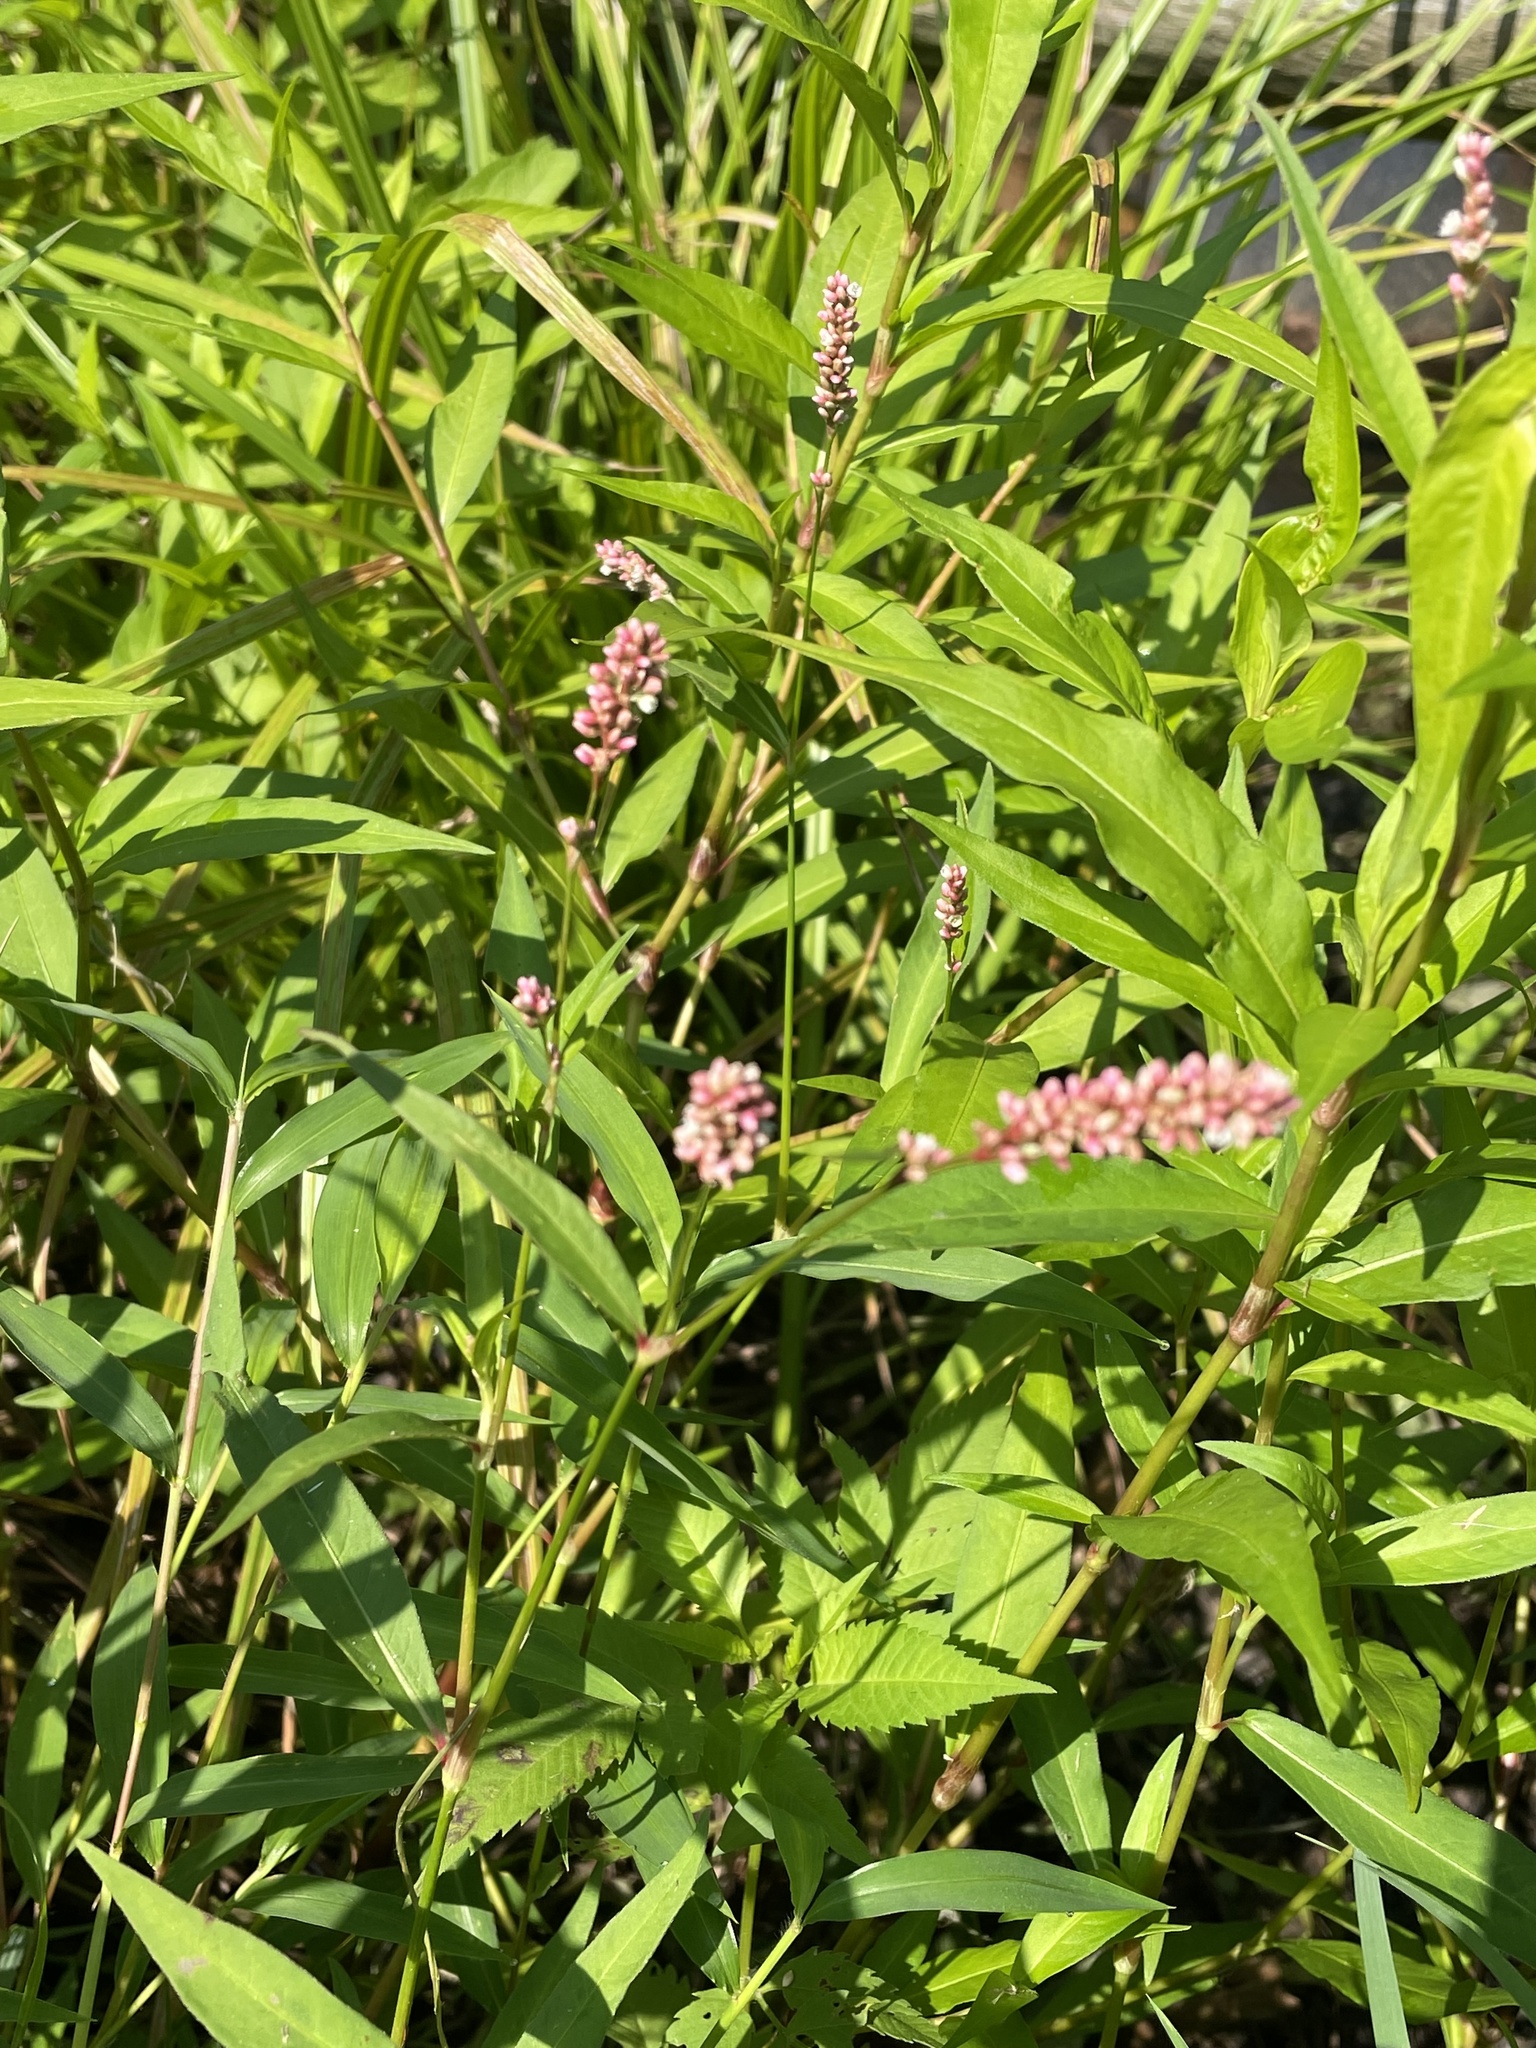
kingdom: Plantae
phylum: Tracheophyta
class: Magnoliopsida
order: Caryophyllales
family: Polygonaceae
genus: Persicaria
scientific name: Persicaria pensylvanica
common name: Pinkweed
